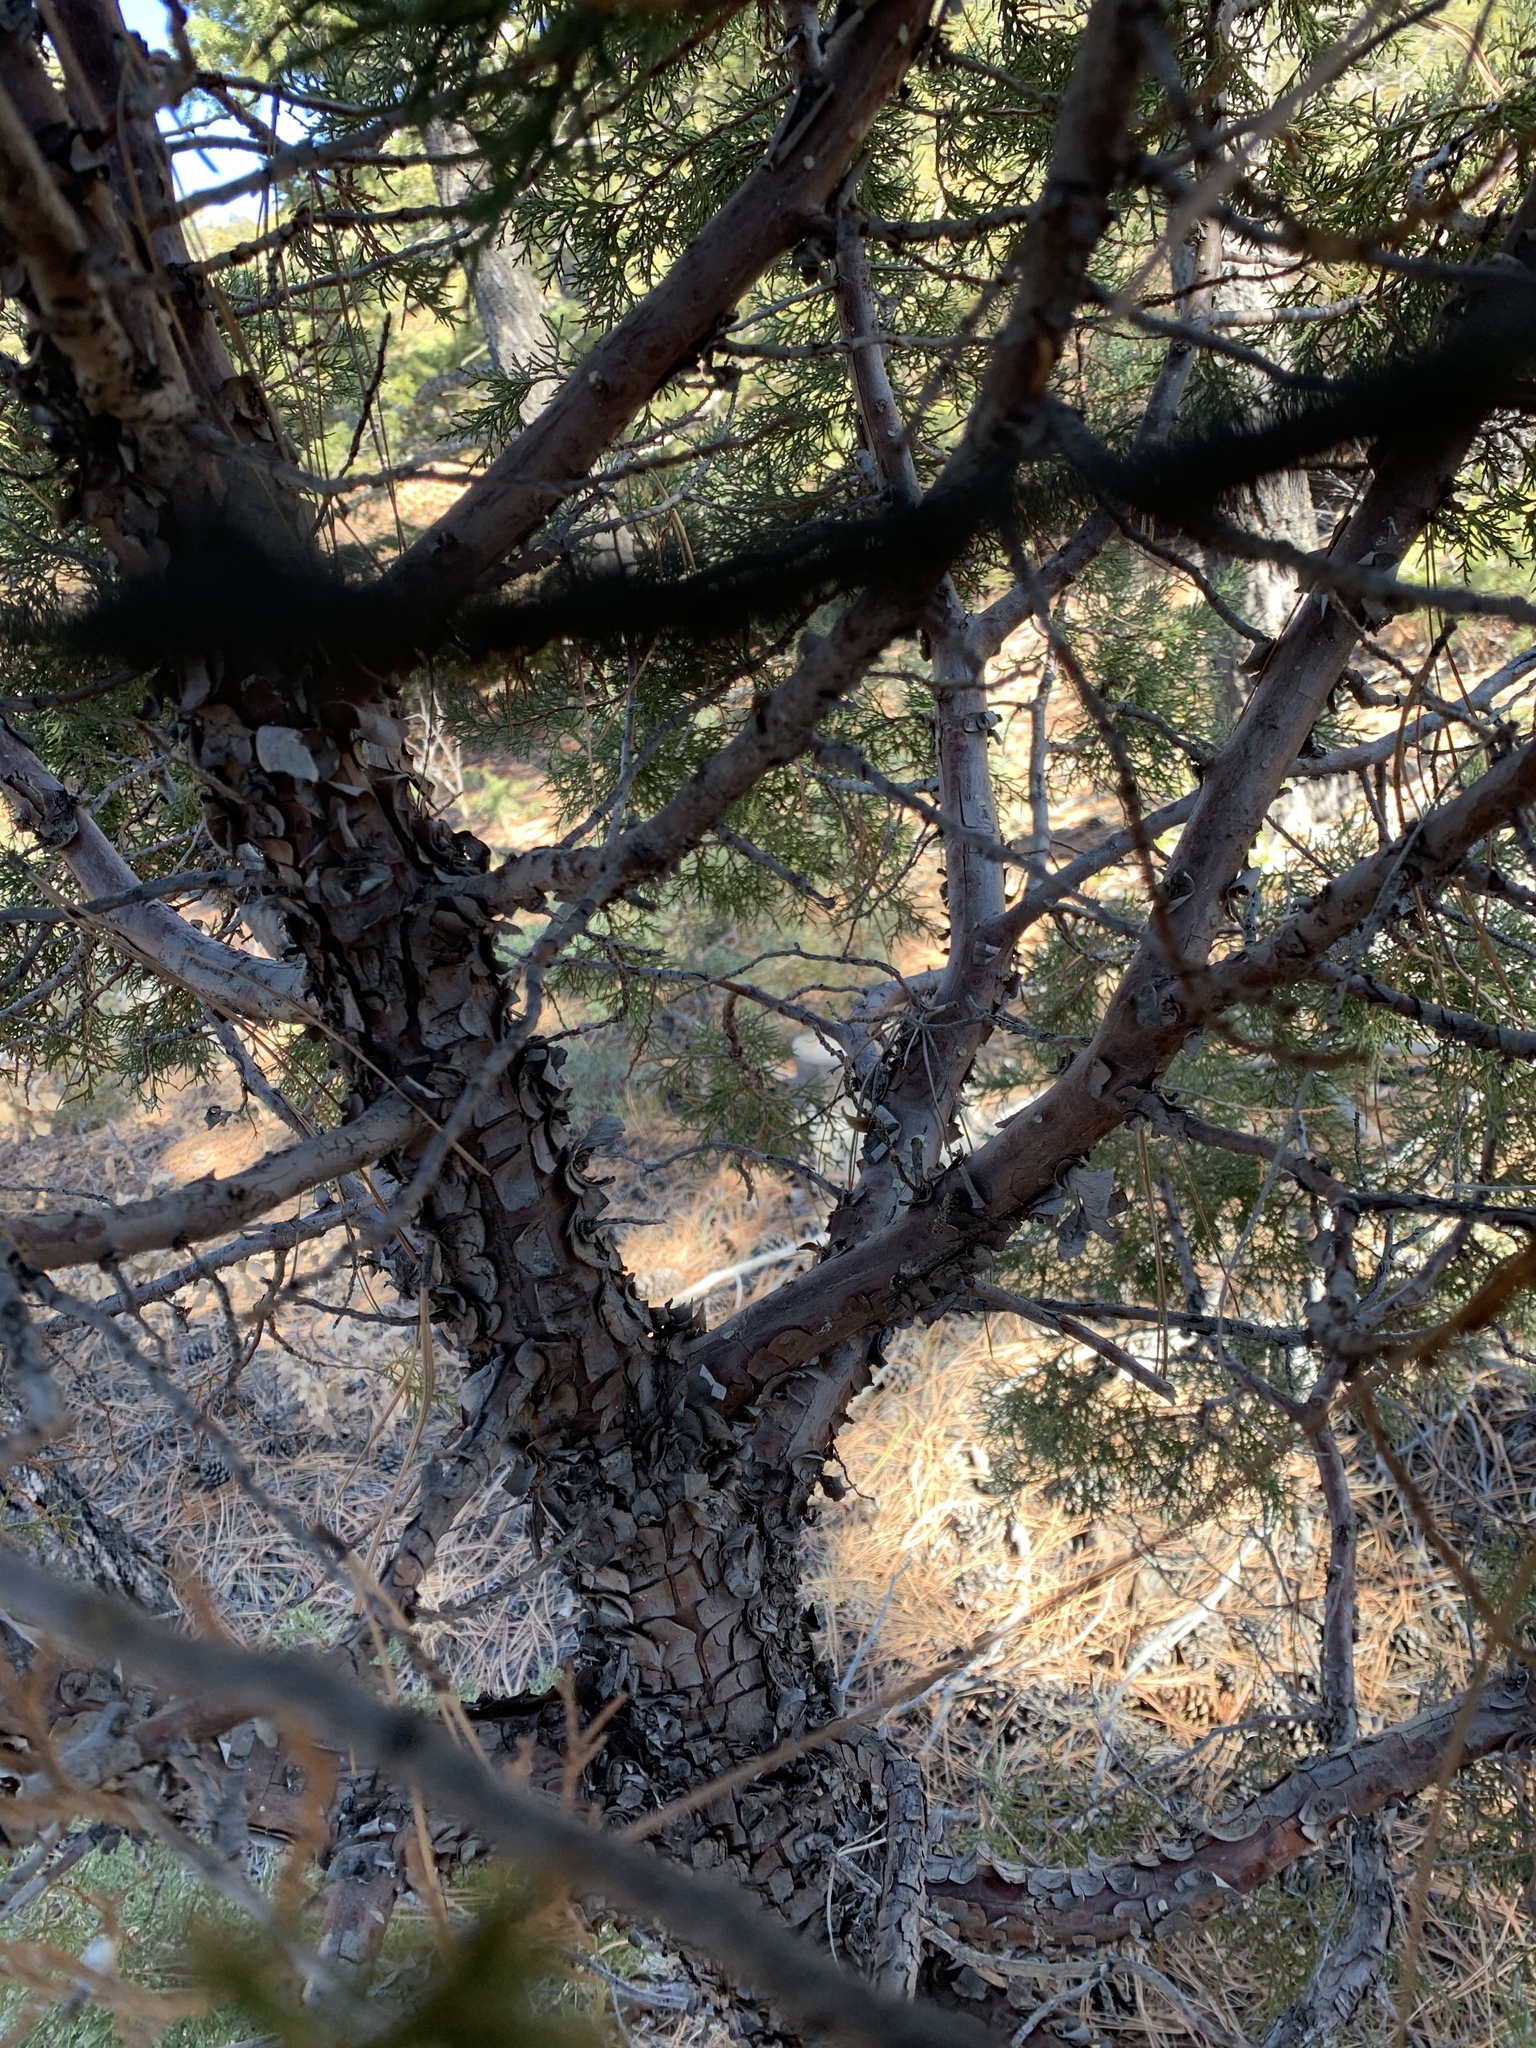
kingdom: Plantae
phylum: Tracheophyta
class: Pinopsida
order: Pinales
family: Cupressaceae
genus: Juniperus
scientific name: Juniperus deppeana
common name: Alligator juniper
